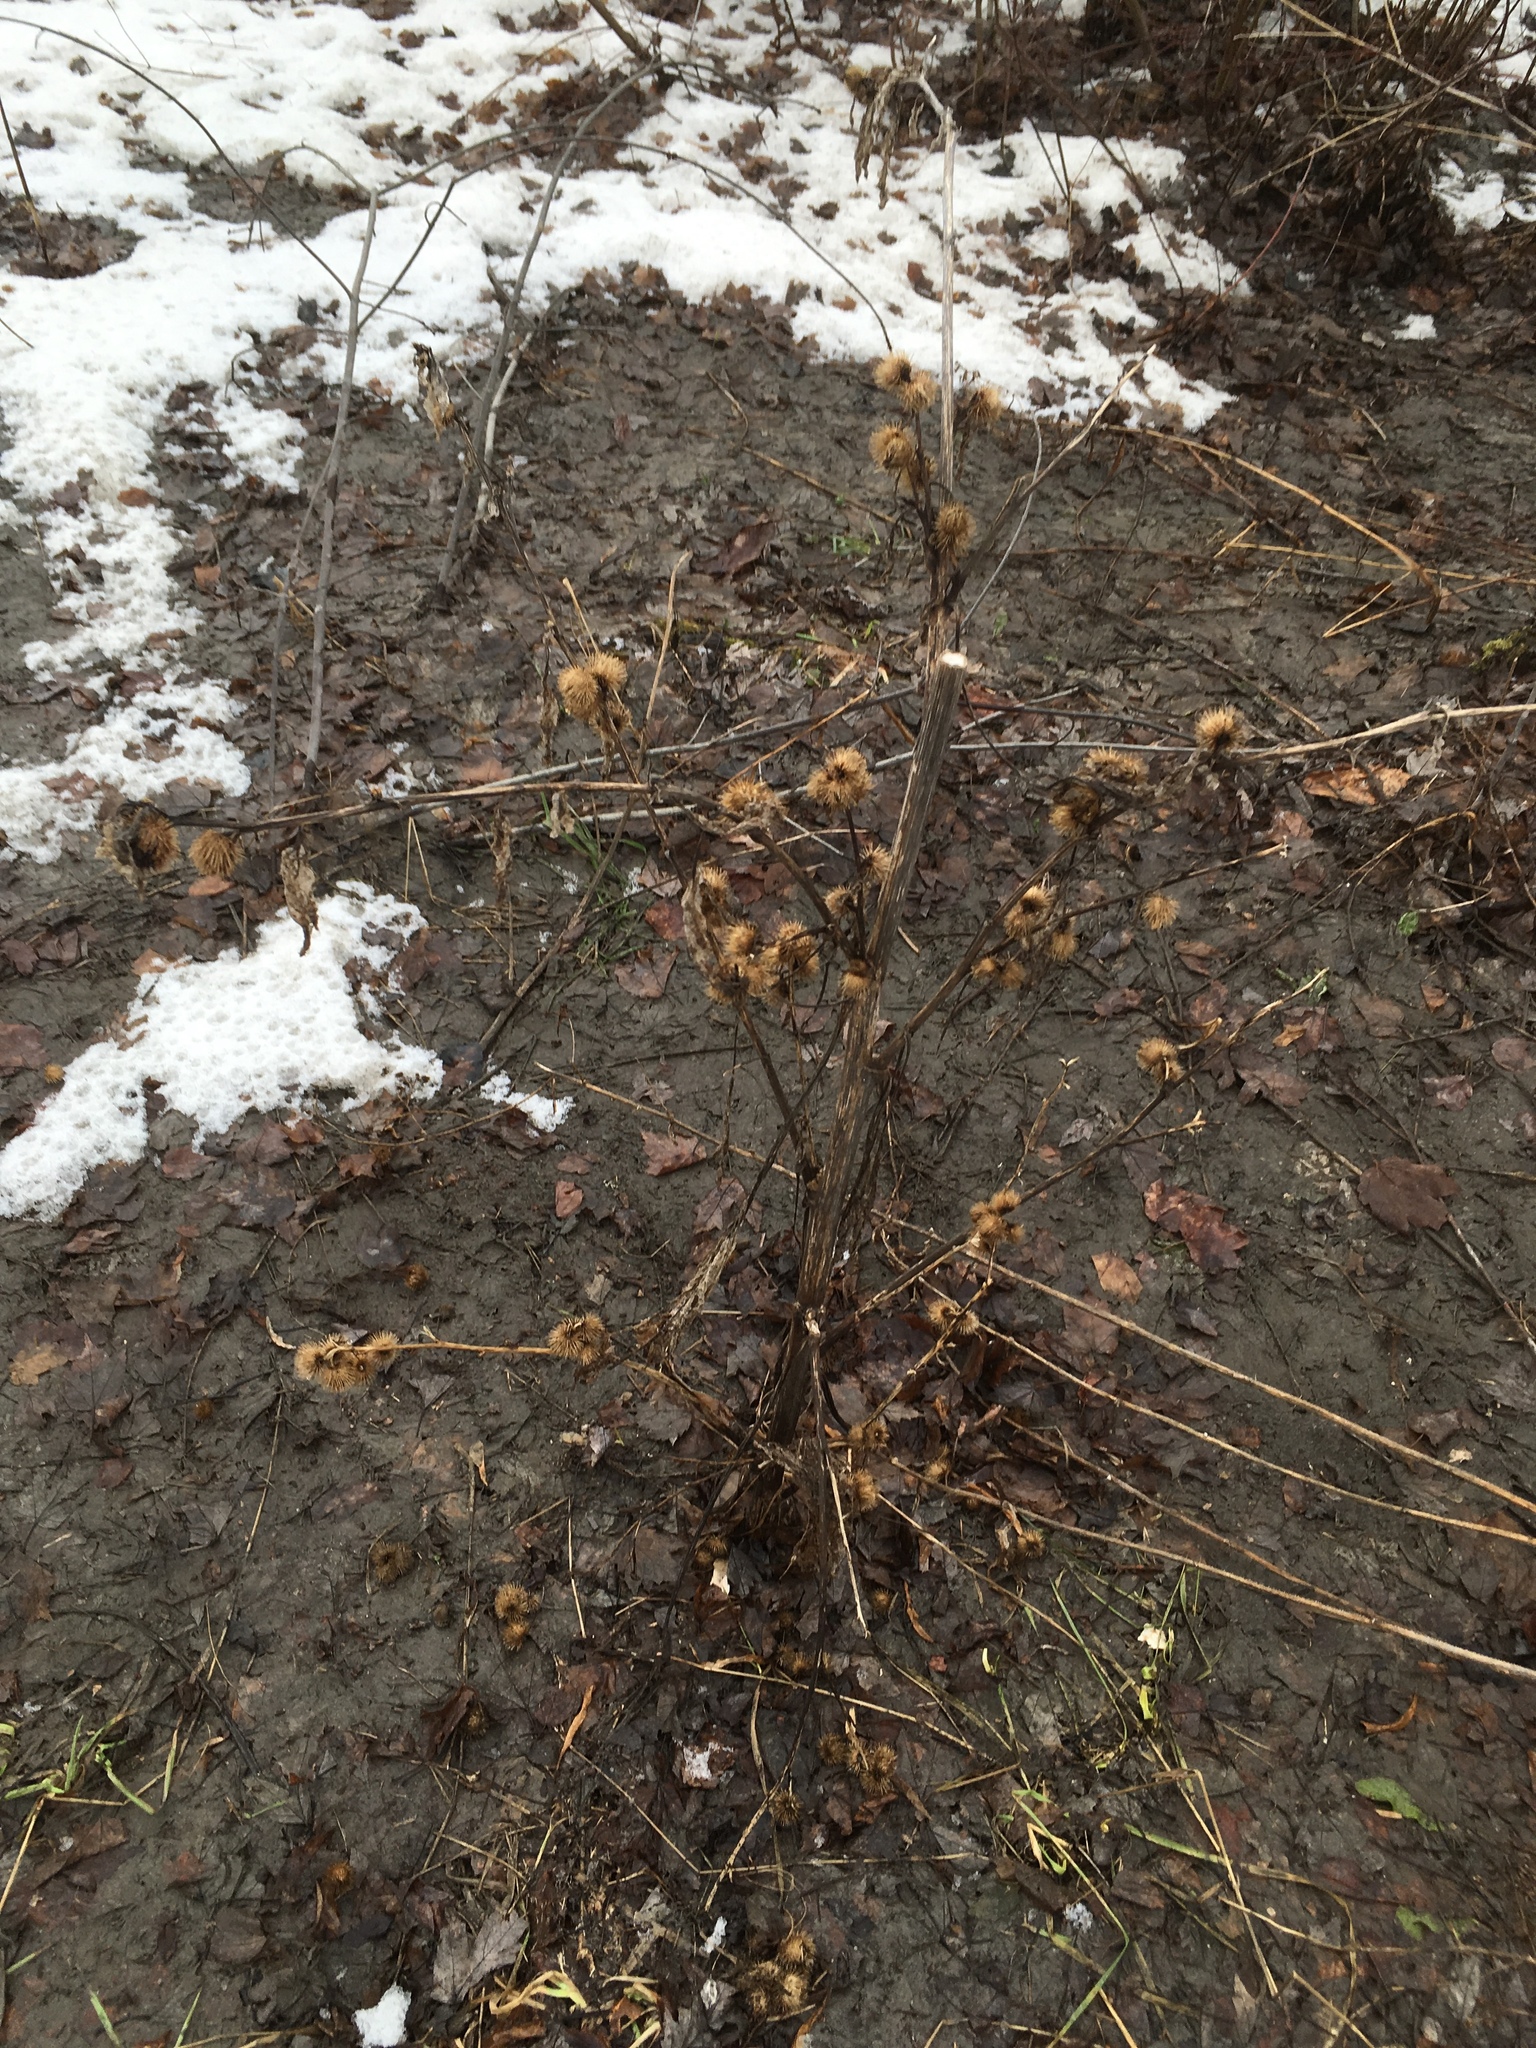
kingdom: Plantae
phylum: Tracheophyta
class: Magnoliopsida
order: Asterales
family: Asteraceae
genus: Arctium
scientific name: Arctium minus
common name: Lesser burdock
